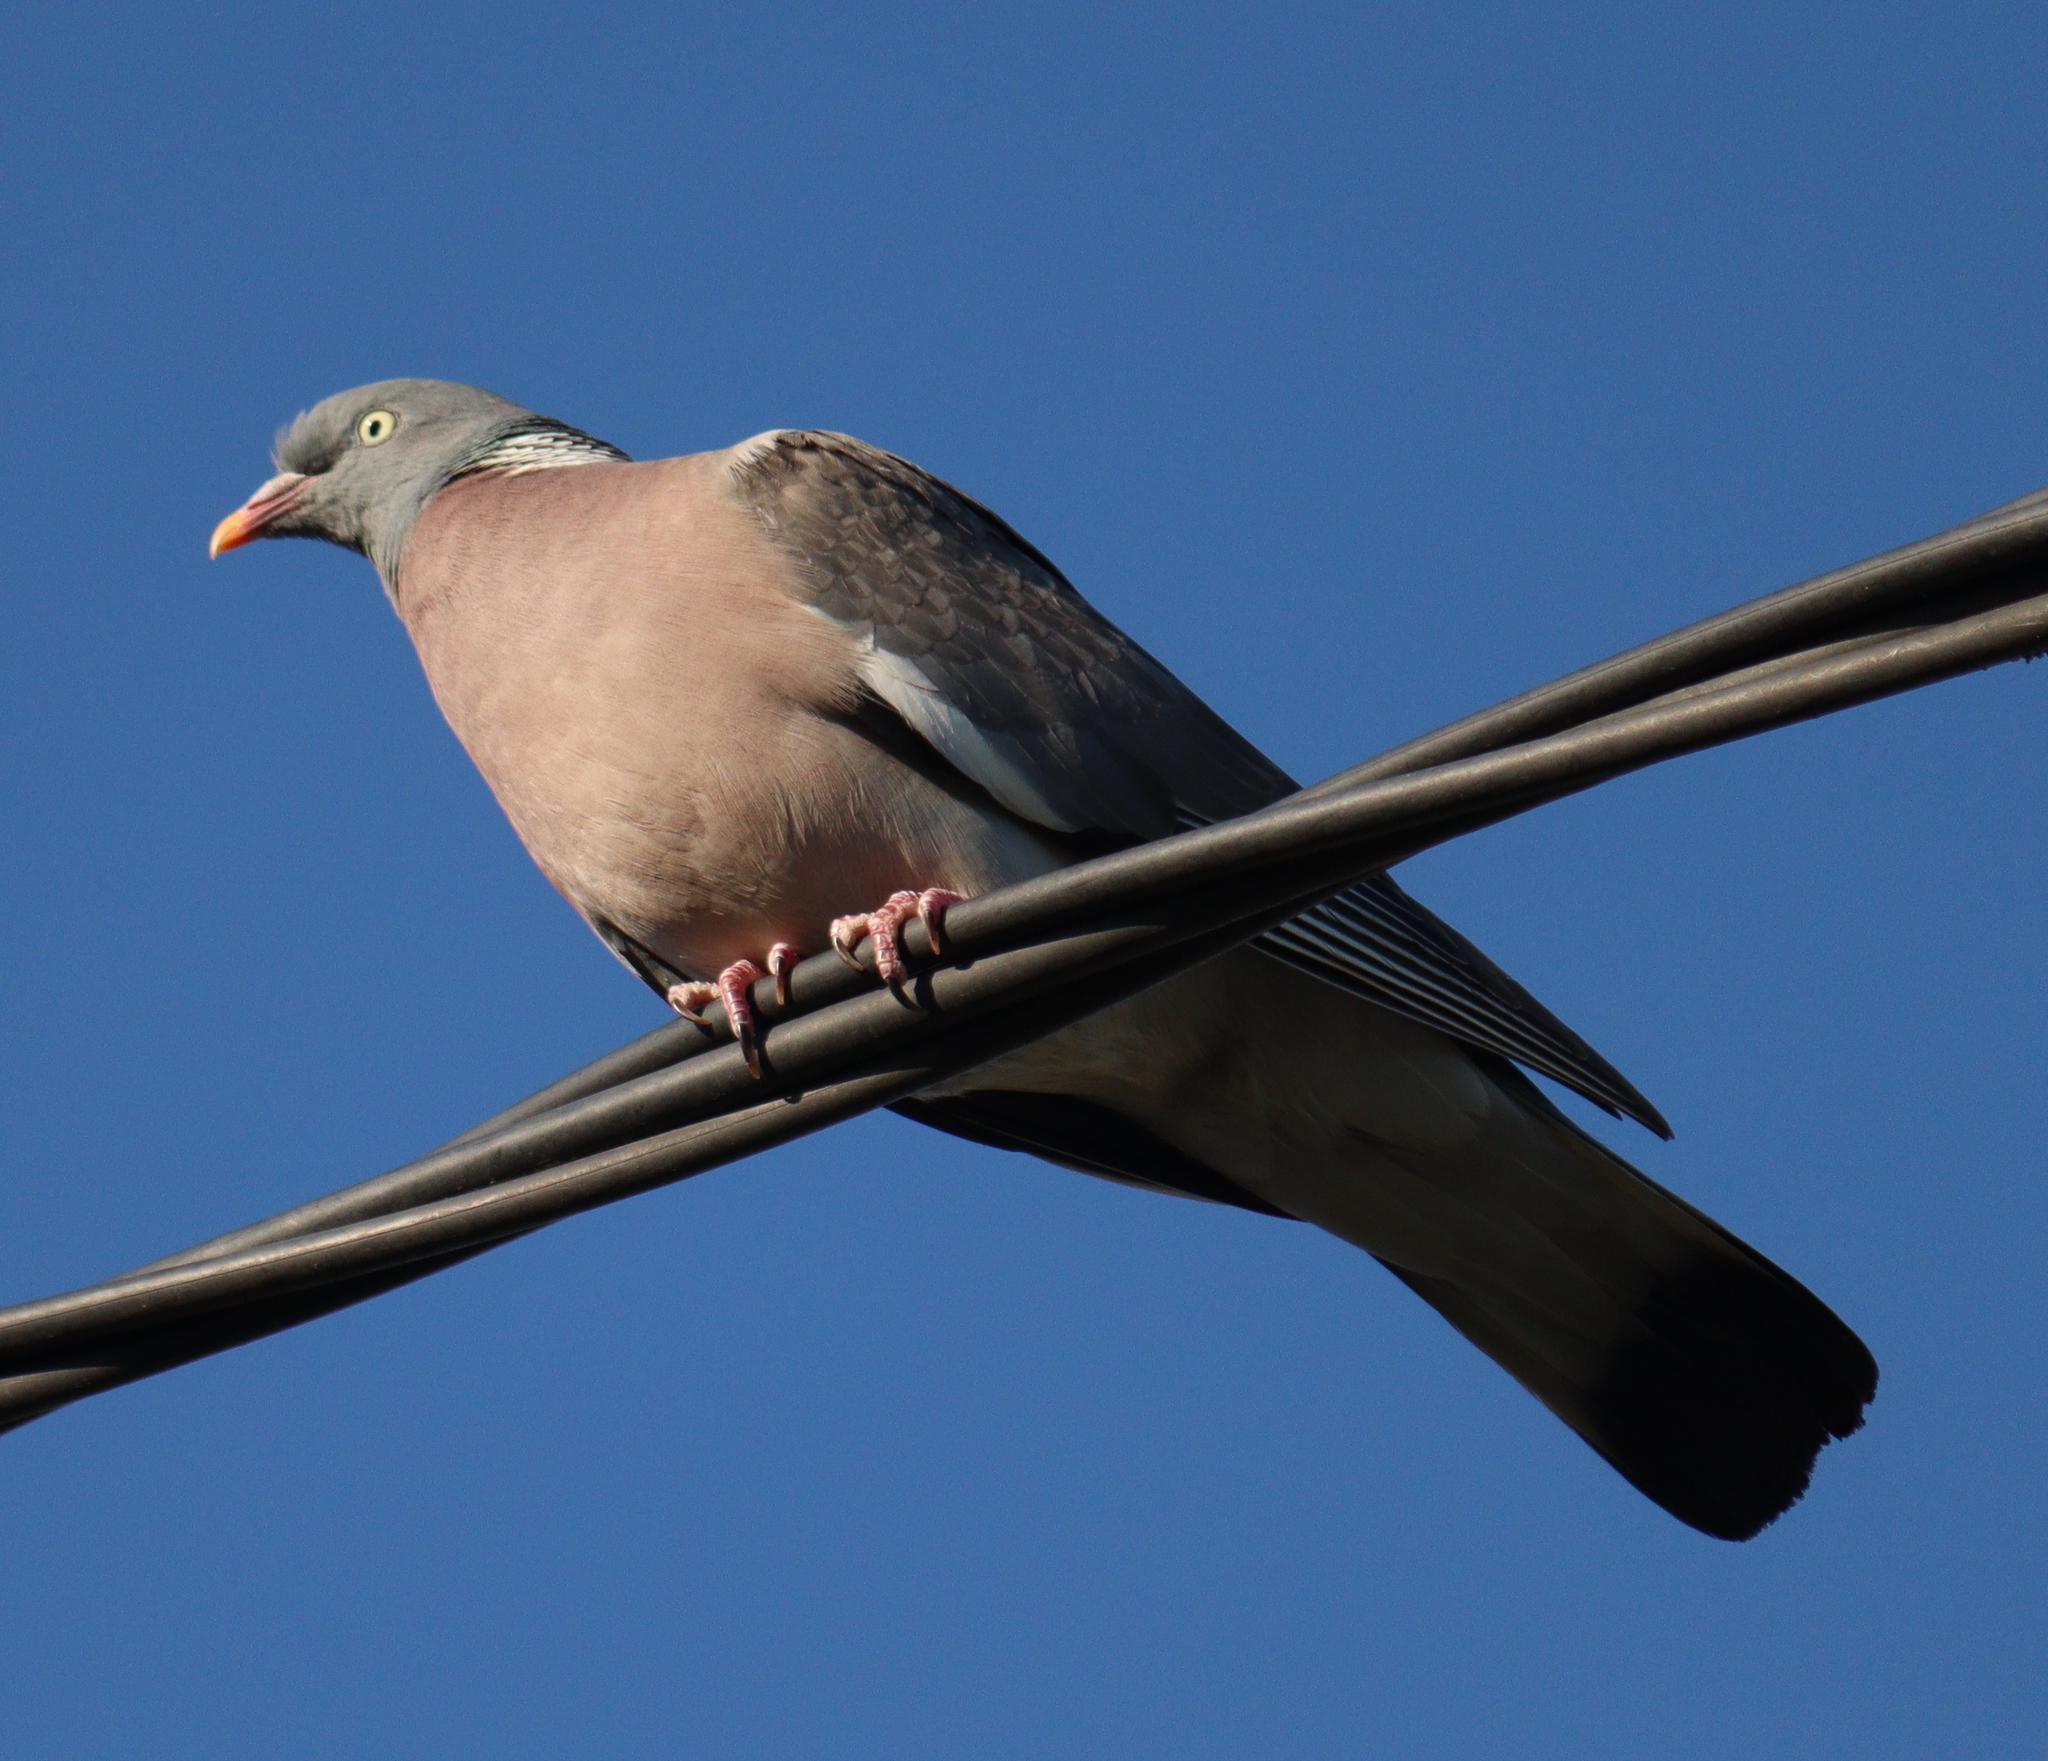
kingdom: Animalia
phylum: Chordata
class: Aves
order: Columbiformes
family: Columbidae
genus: Columba
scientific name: Columba palumbus
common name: Common wood pigeon
